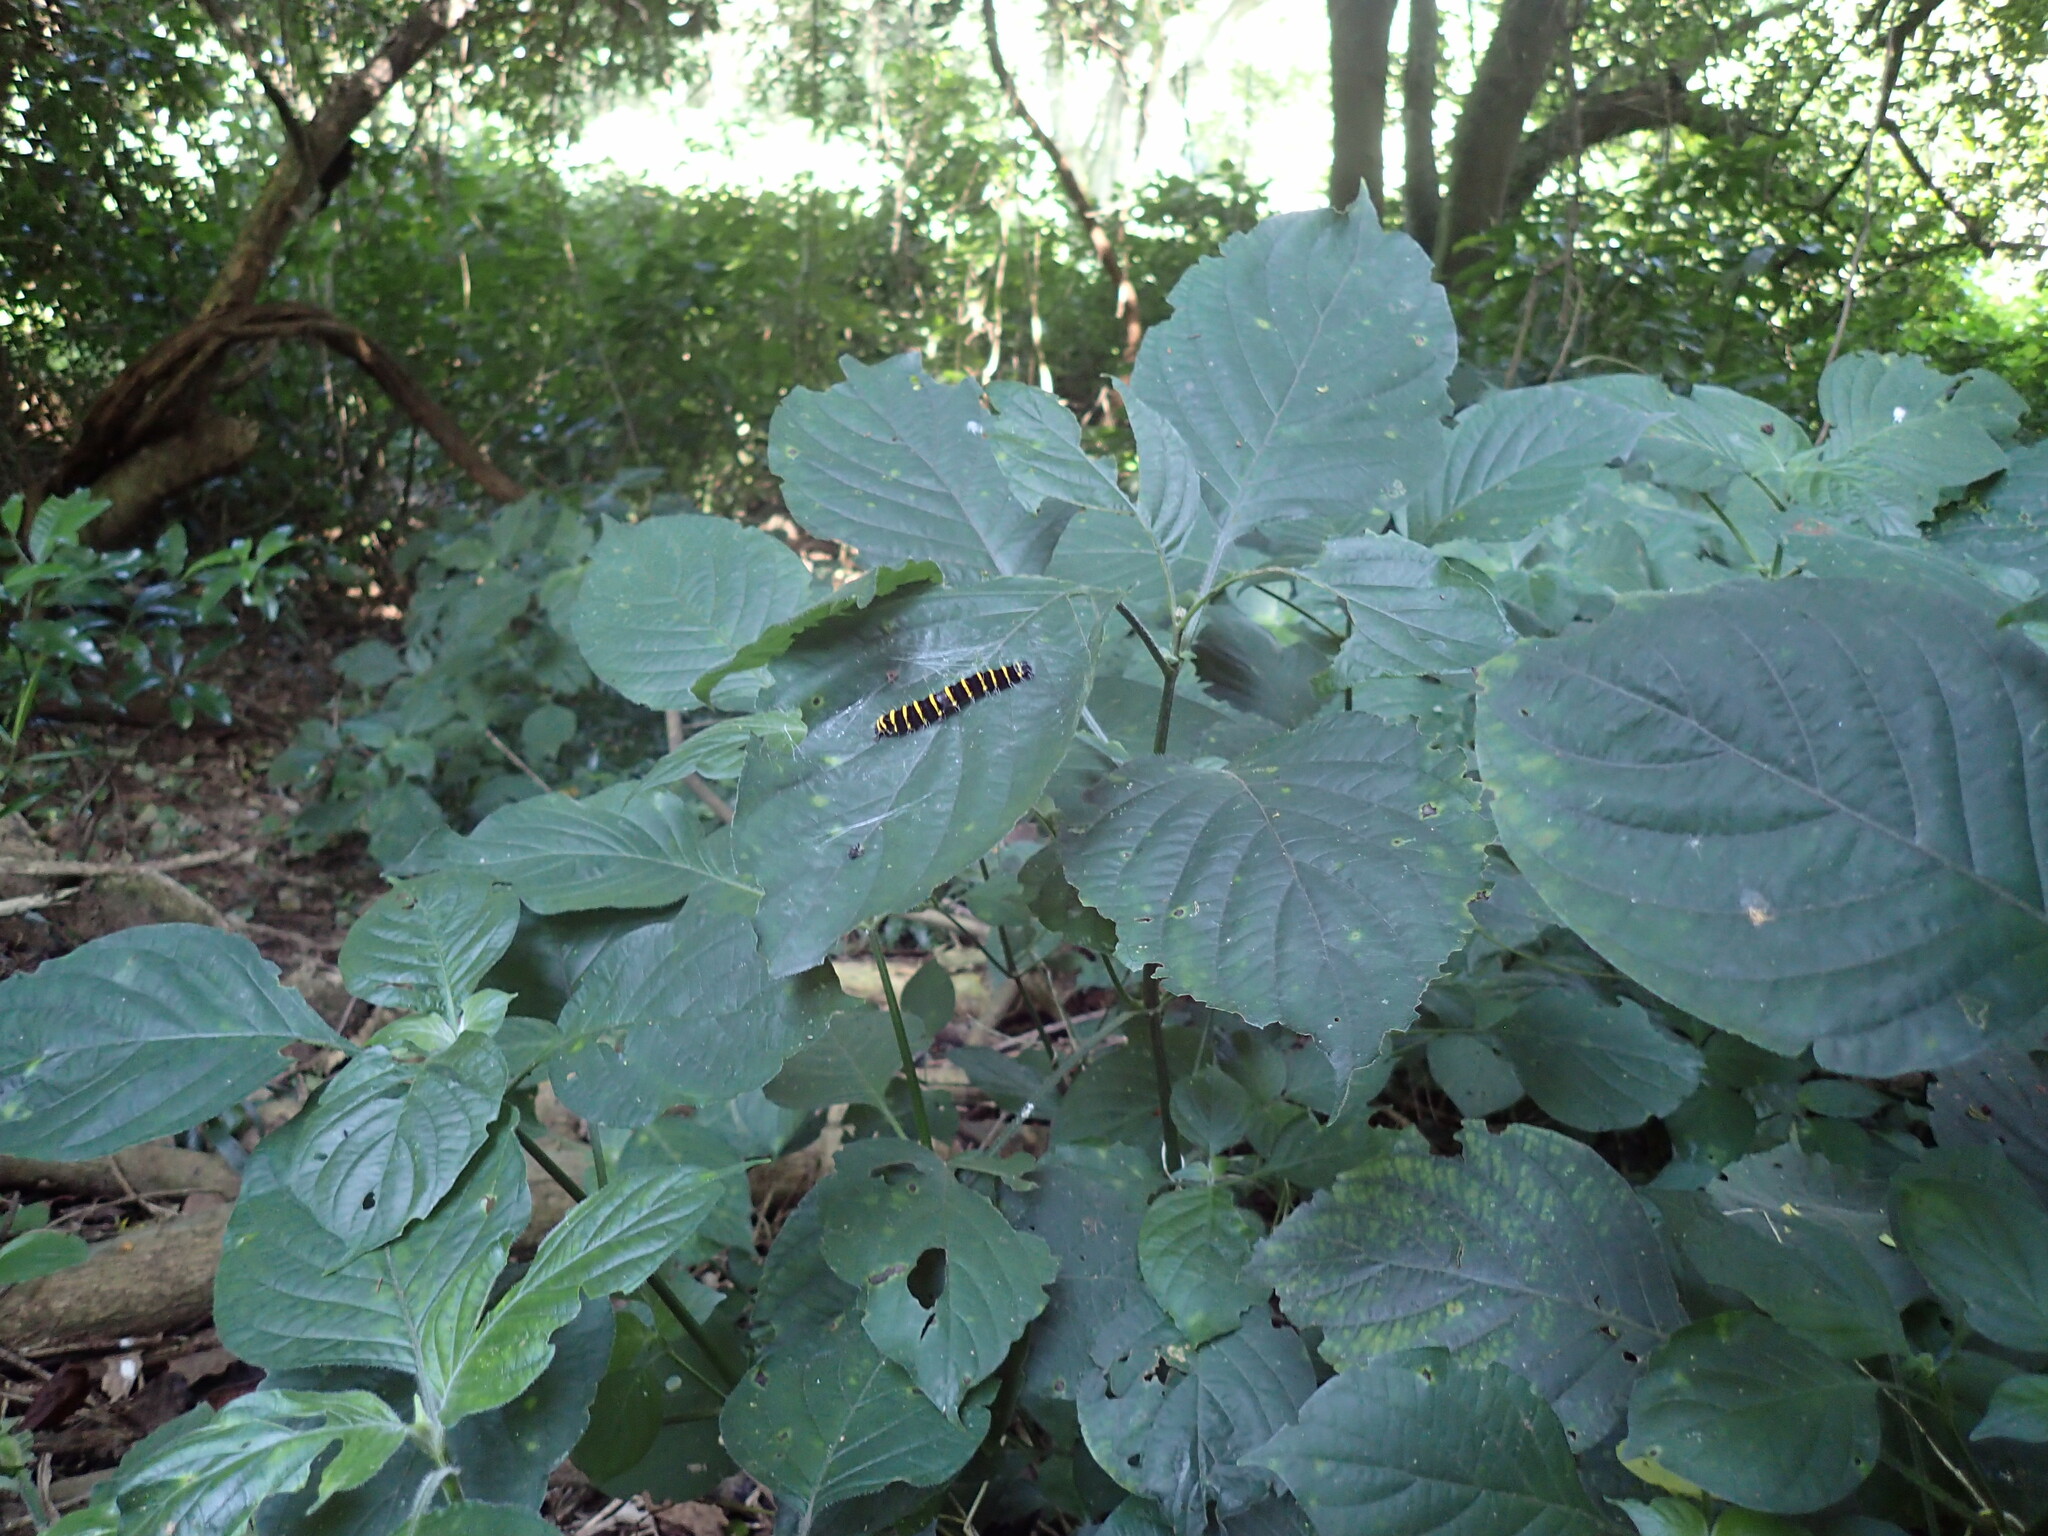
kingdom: Plantae
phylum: Tracheophyta
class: Magnoliopsida
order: Lamiales
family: Acanthaceae
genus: Isoglossa
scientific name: Isoglossa woodii
